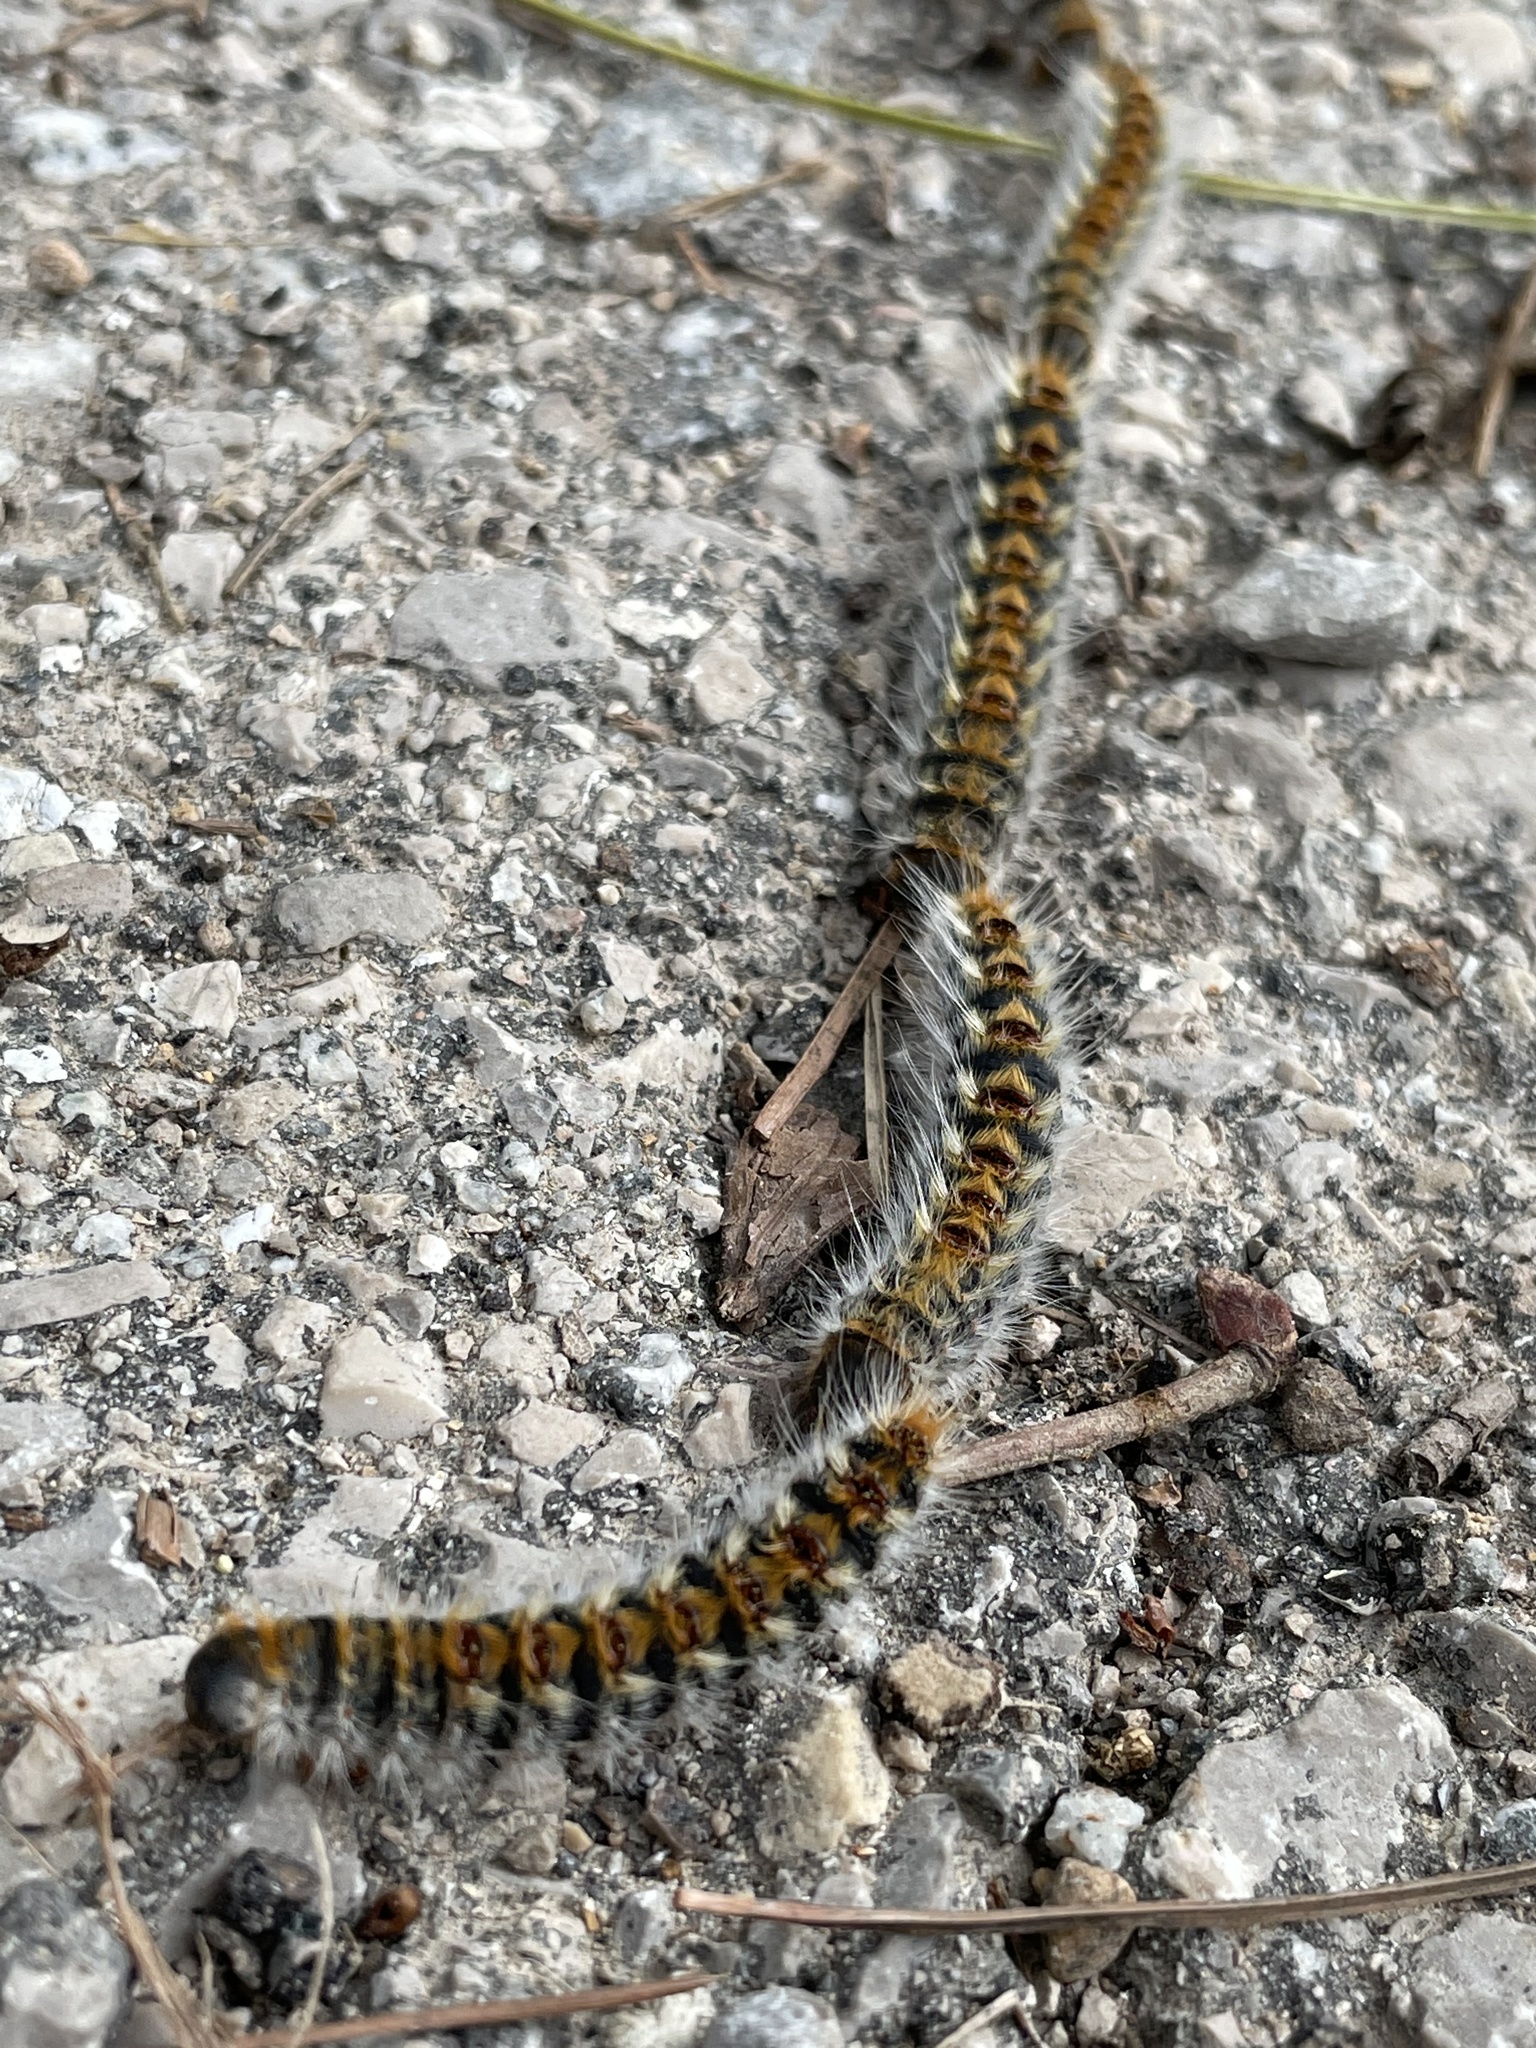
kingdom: Animalia
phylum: Arthropoda
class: Insecta
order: Lepidoptera
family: Notodontidae
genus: Thaumetopoea
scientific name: Thaumetopoea pityocampa
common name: Pine processionary
